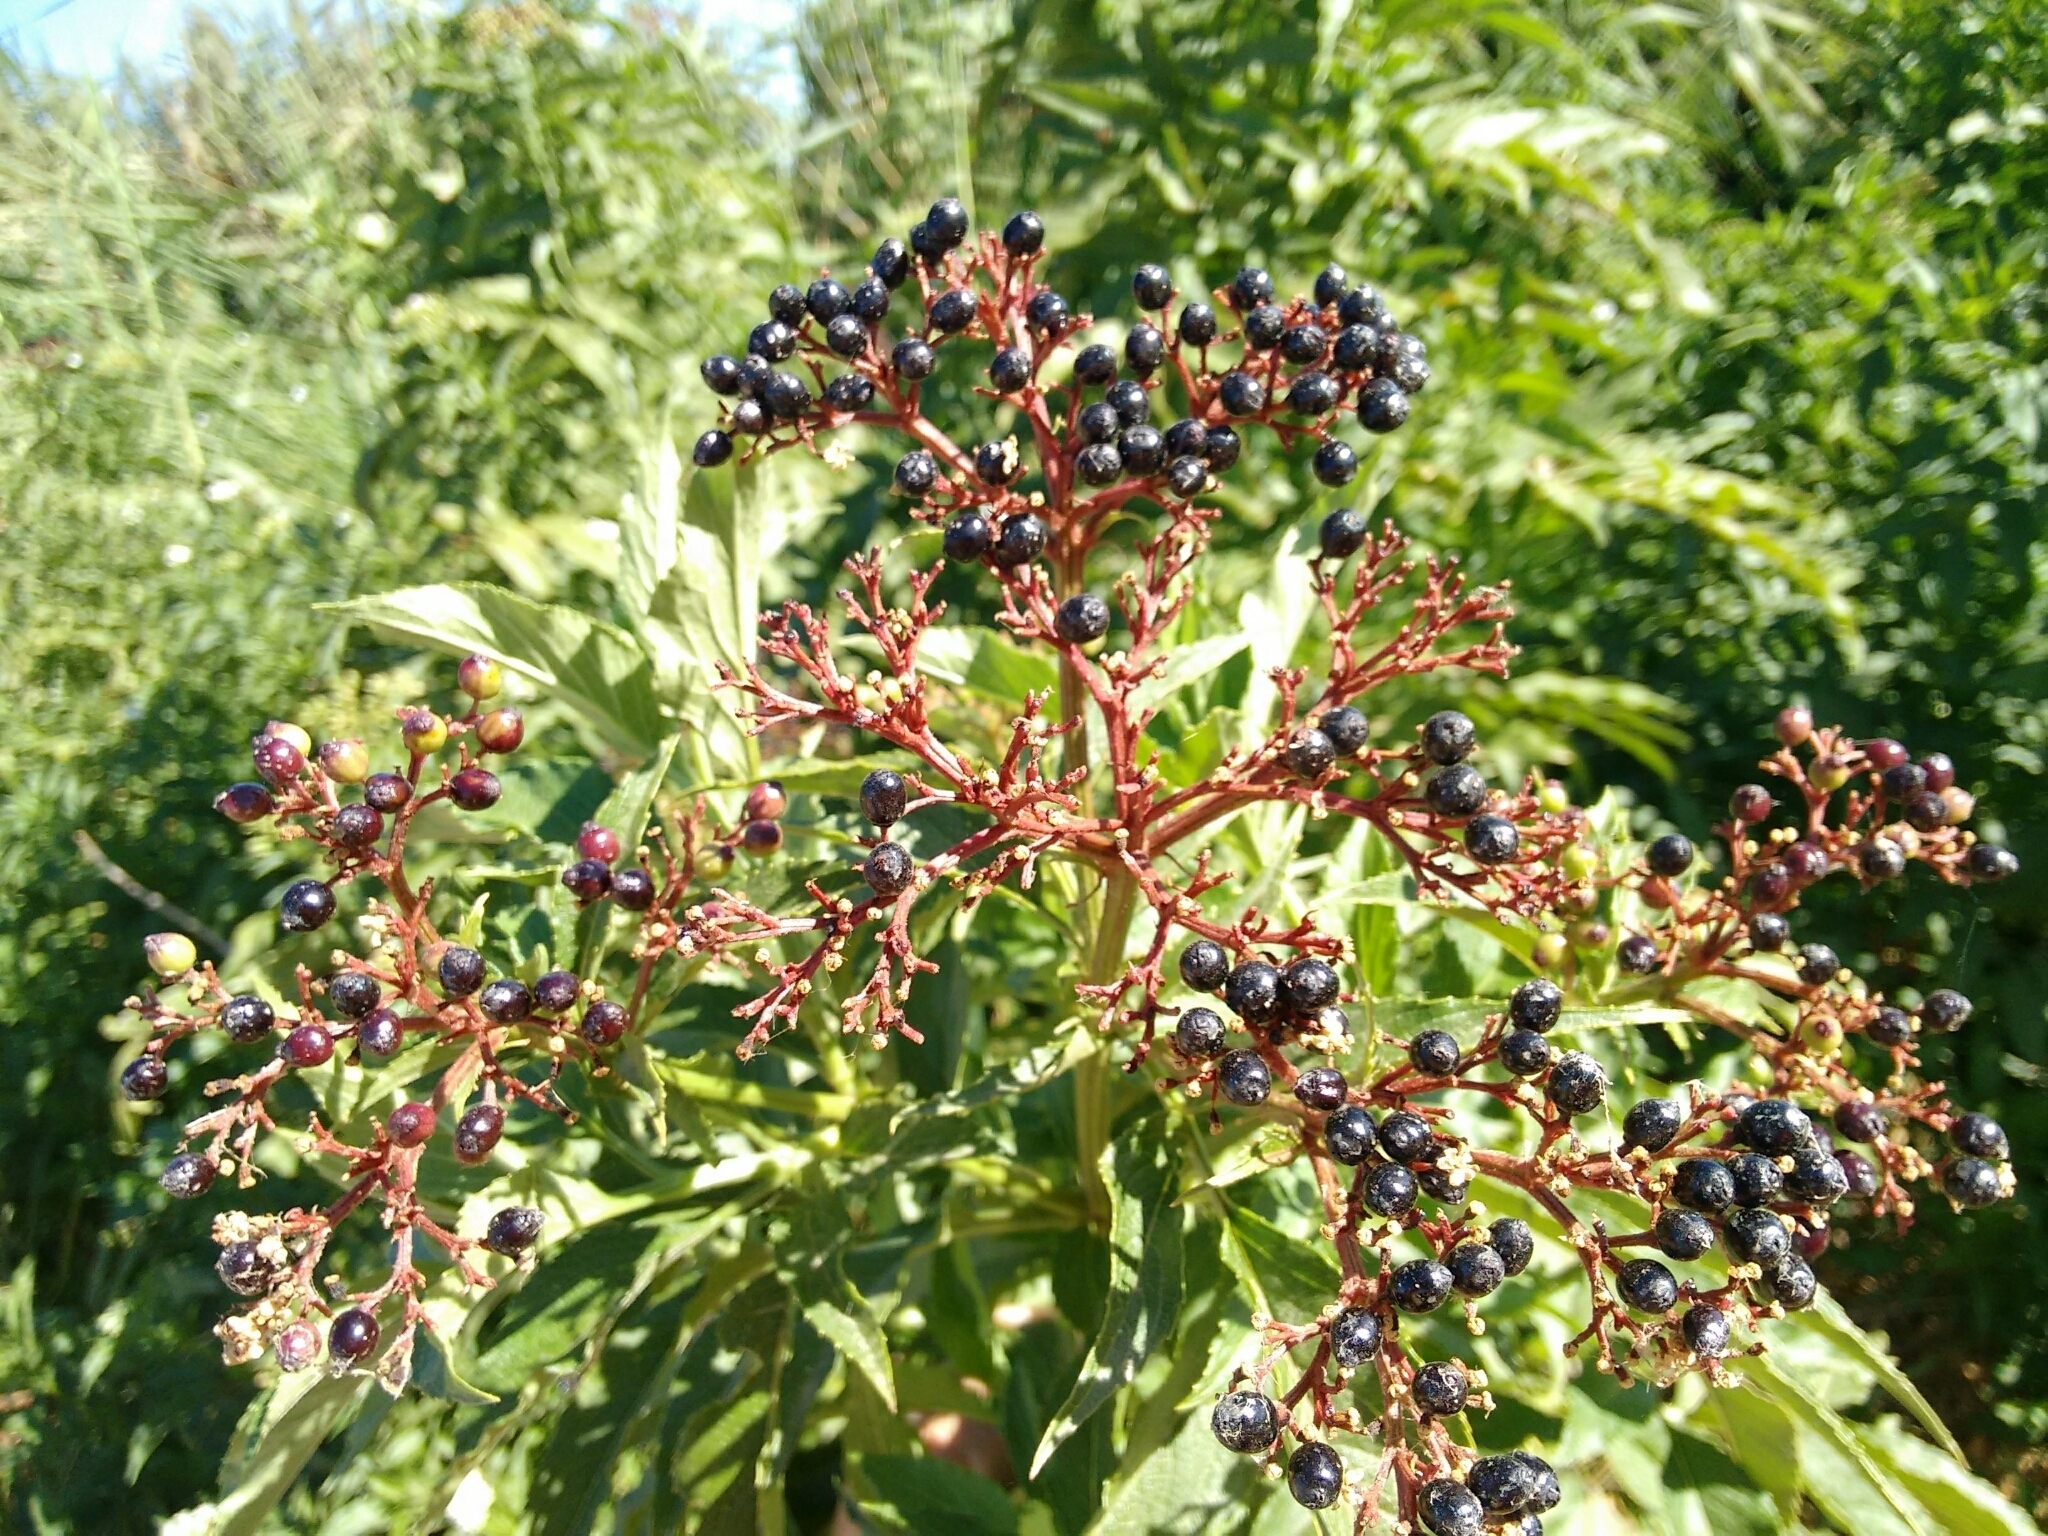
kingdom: Plantae
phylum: Tracheophyta
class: Magnoliopsida
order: Dipsacales
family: Viburnaceae
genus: Sambucus
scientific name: Sambucus ebulus
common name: Dwarf elder
